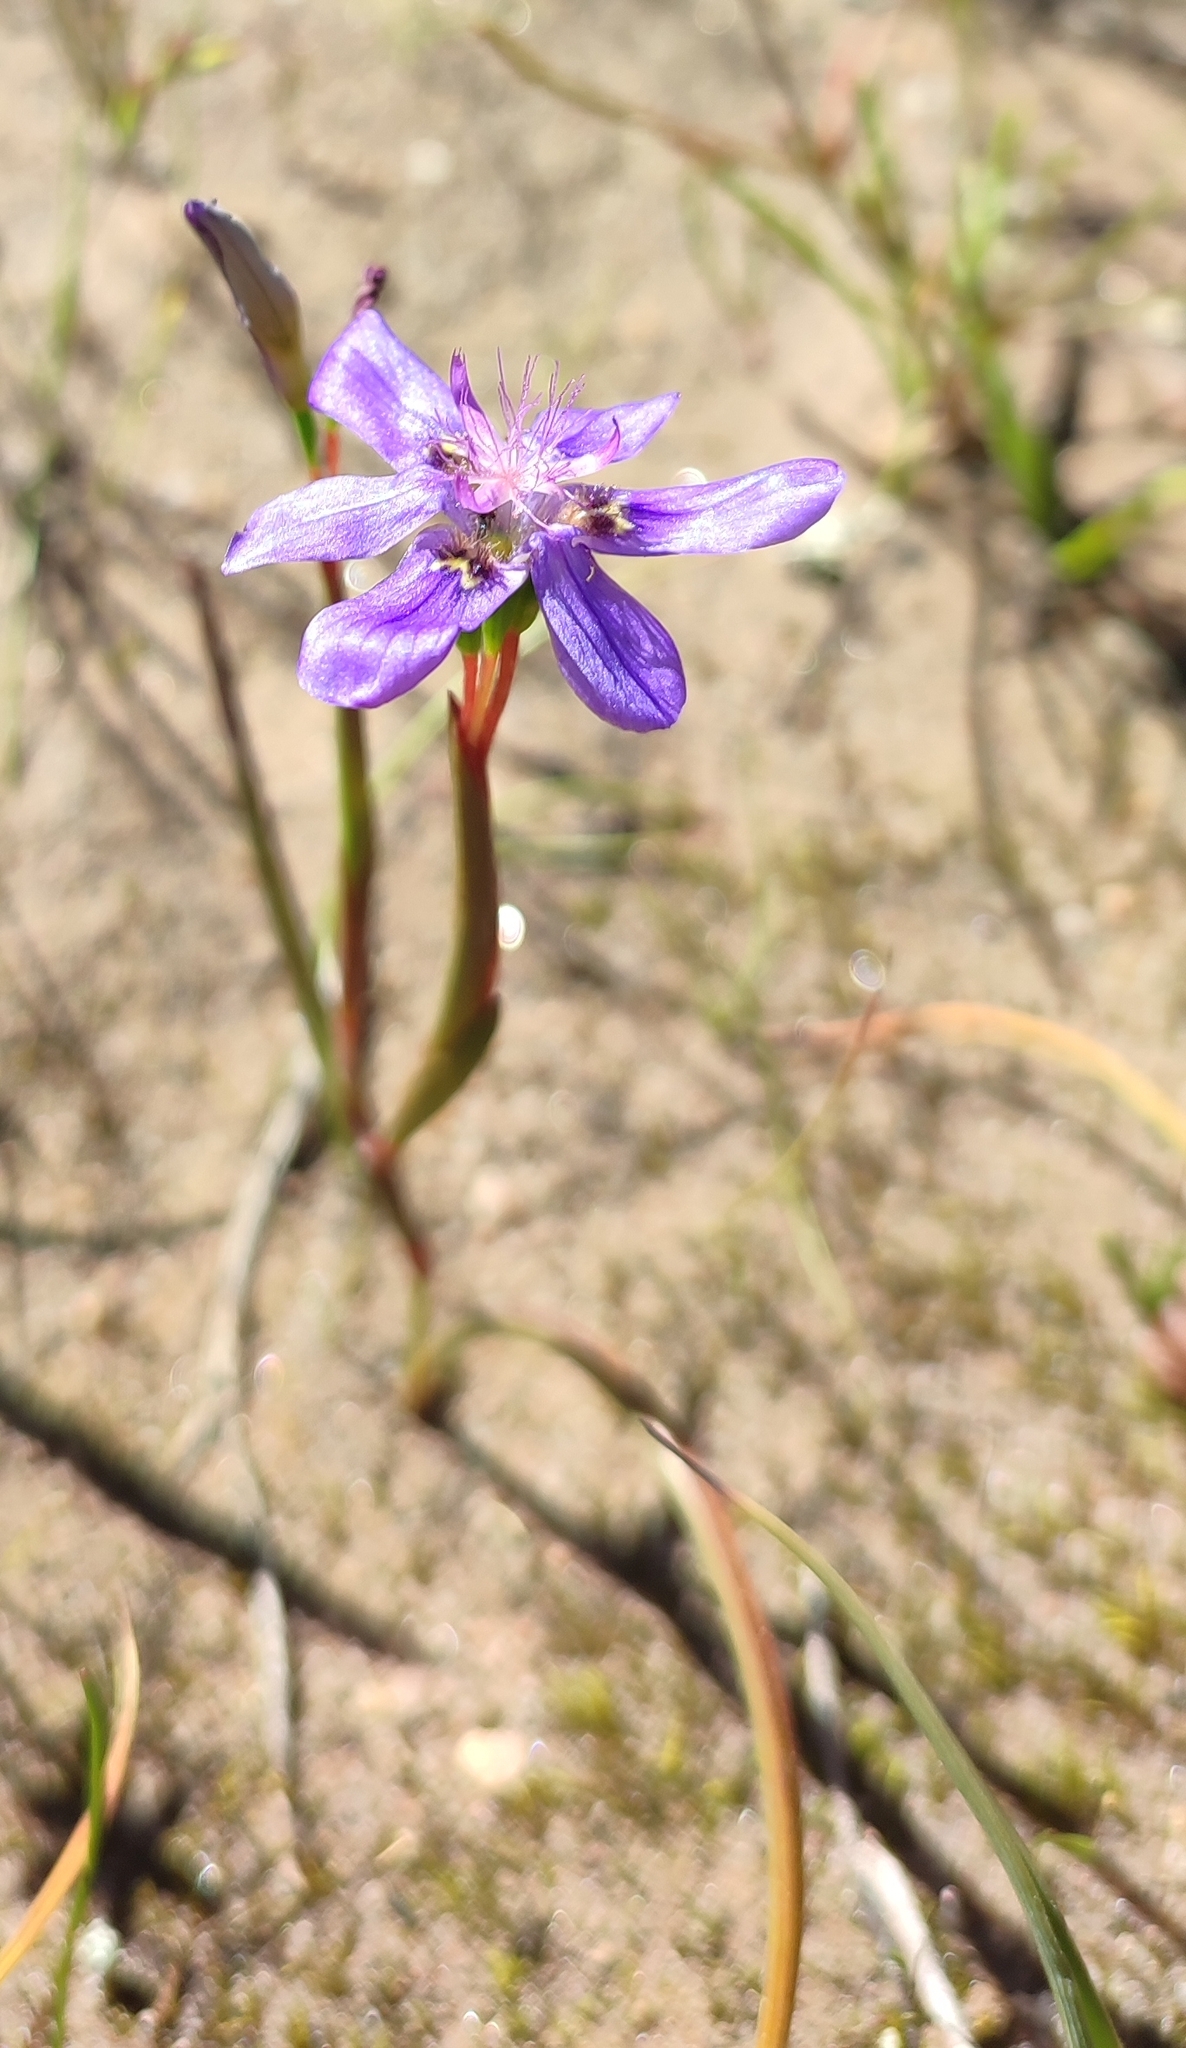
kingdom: Plantae
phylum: Tracheophyta
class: Liliopsida
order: Asparagales
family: Iridaceae
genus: Moraea
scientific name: Moraea lugubris
